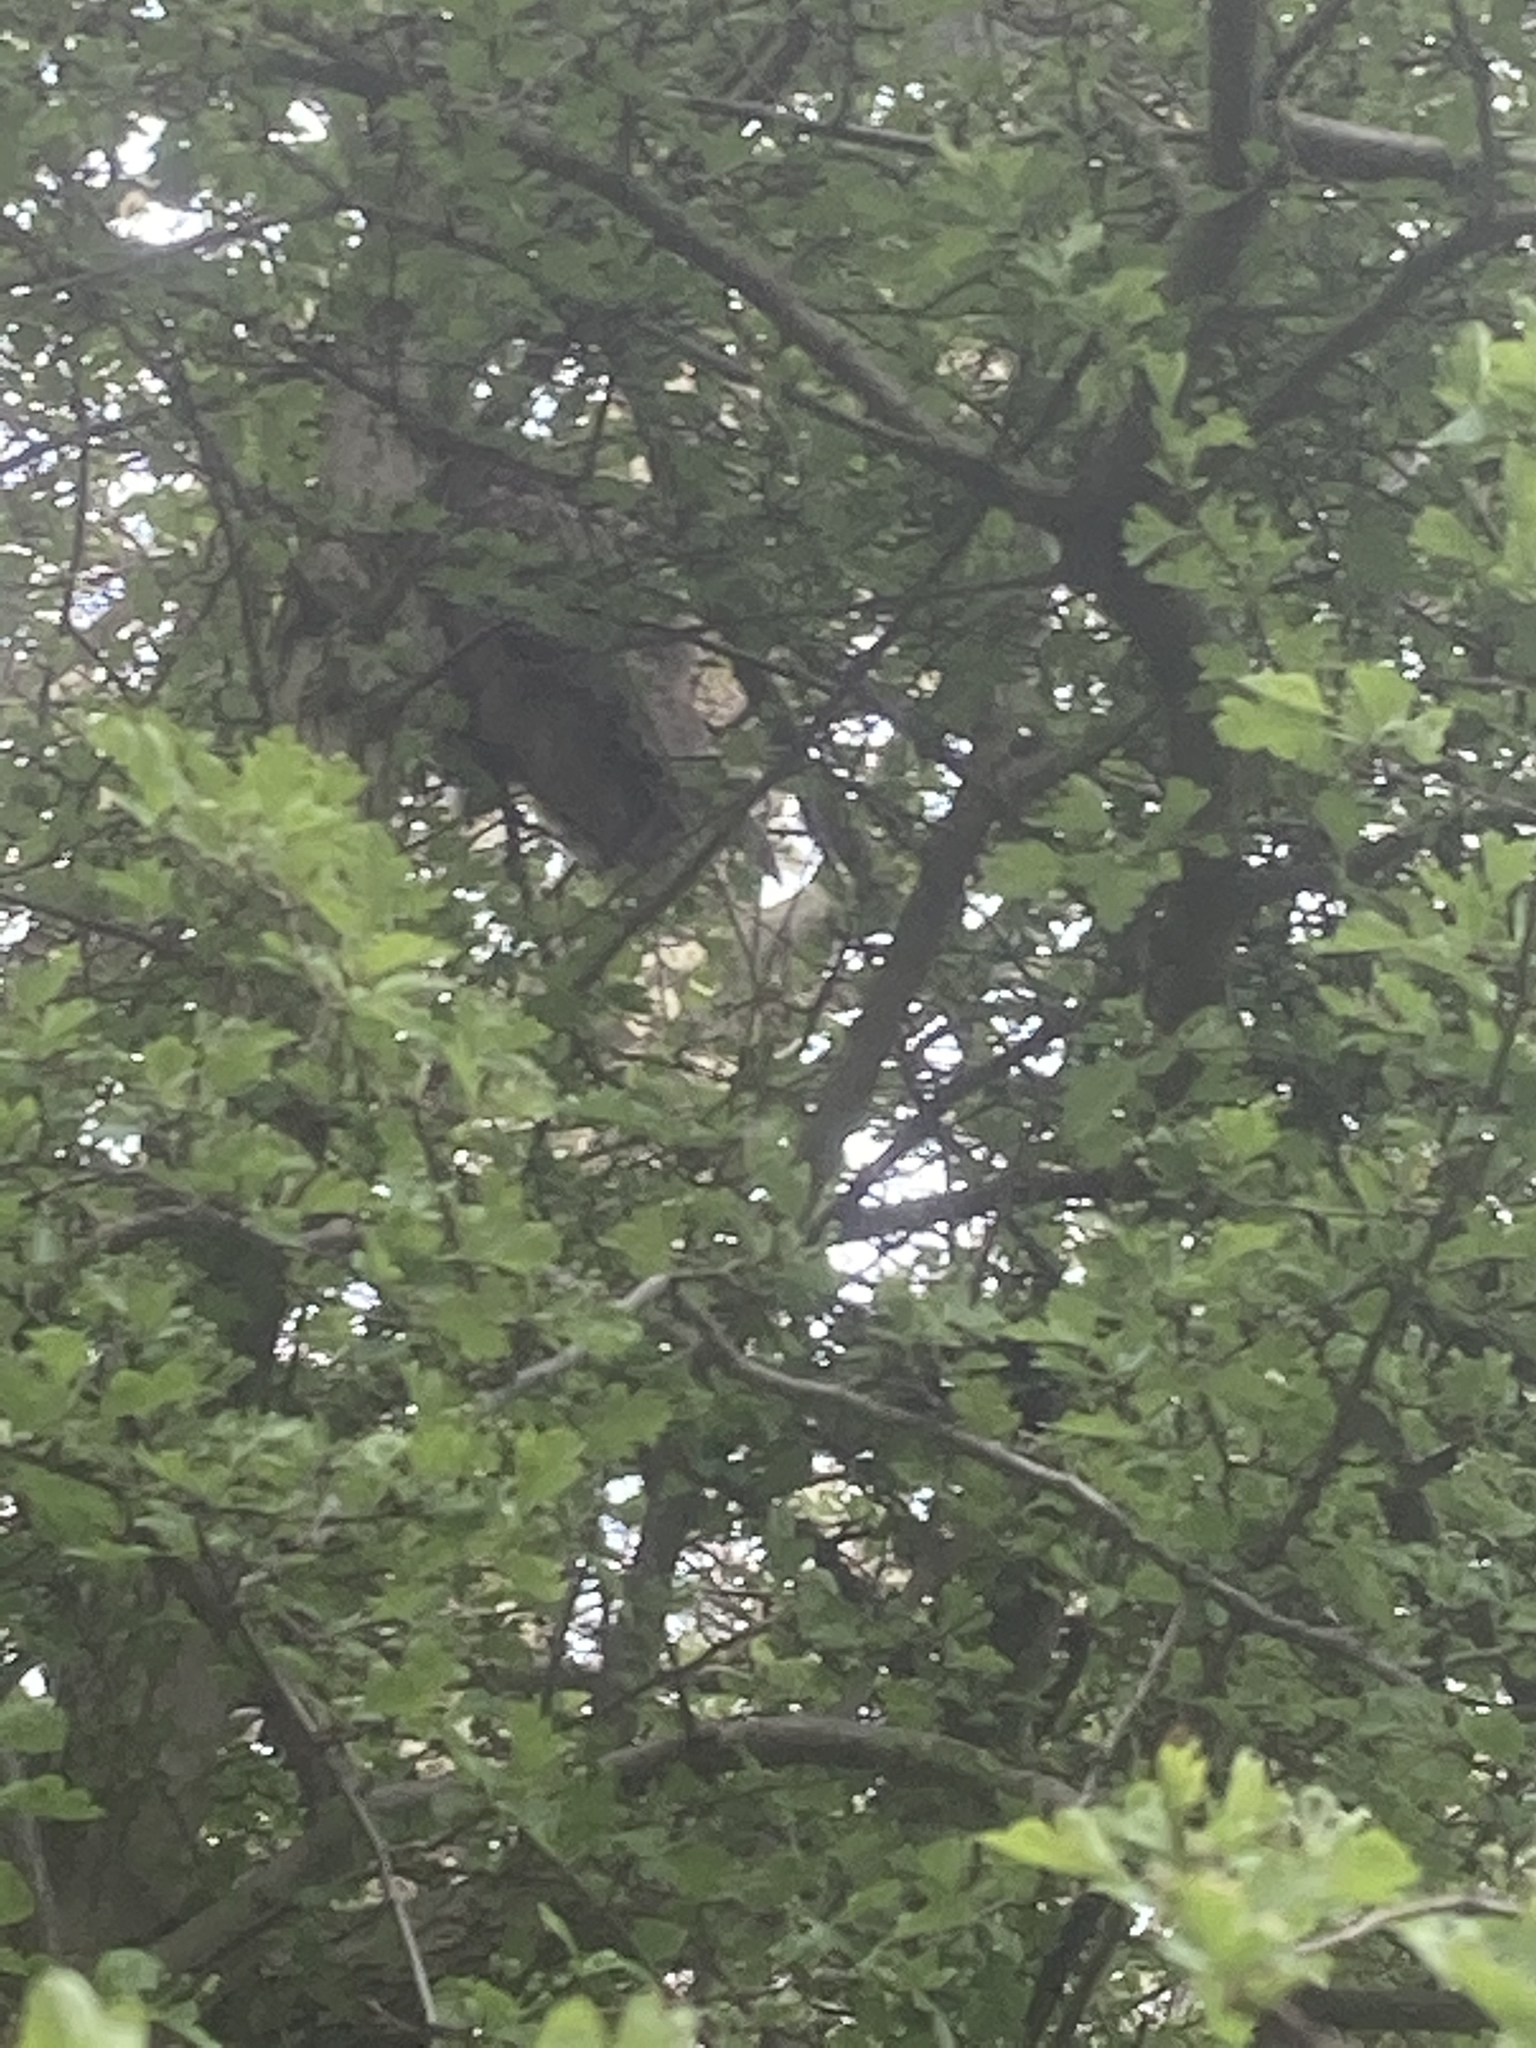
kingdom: Animalia
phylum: Chordata
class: Aves
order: Strigiformes
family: Strigidae
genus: Asio
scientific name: Asio otus
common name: Long-eared owl
